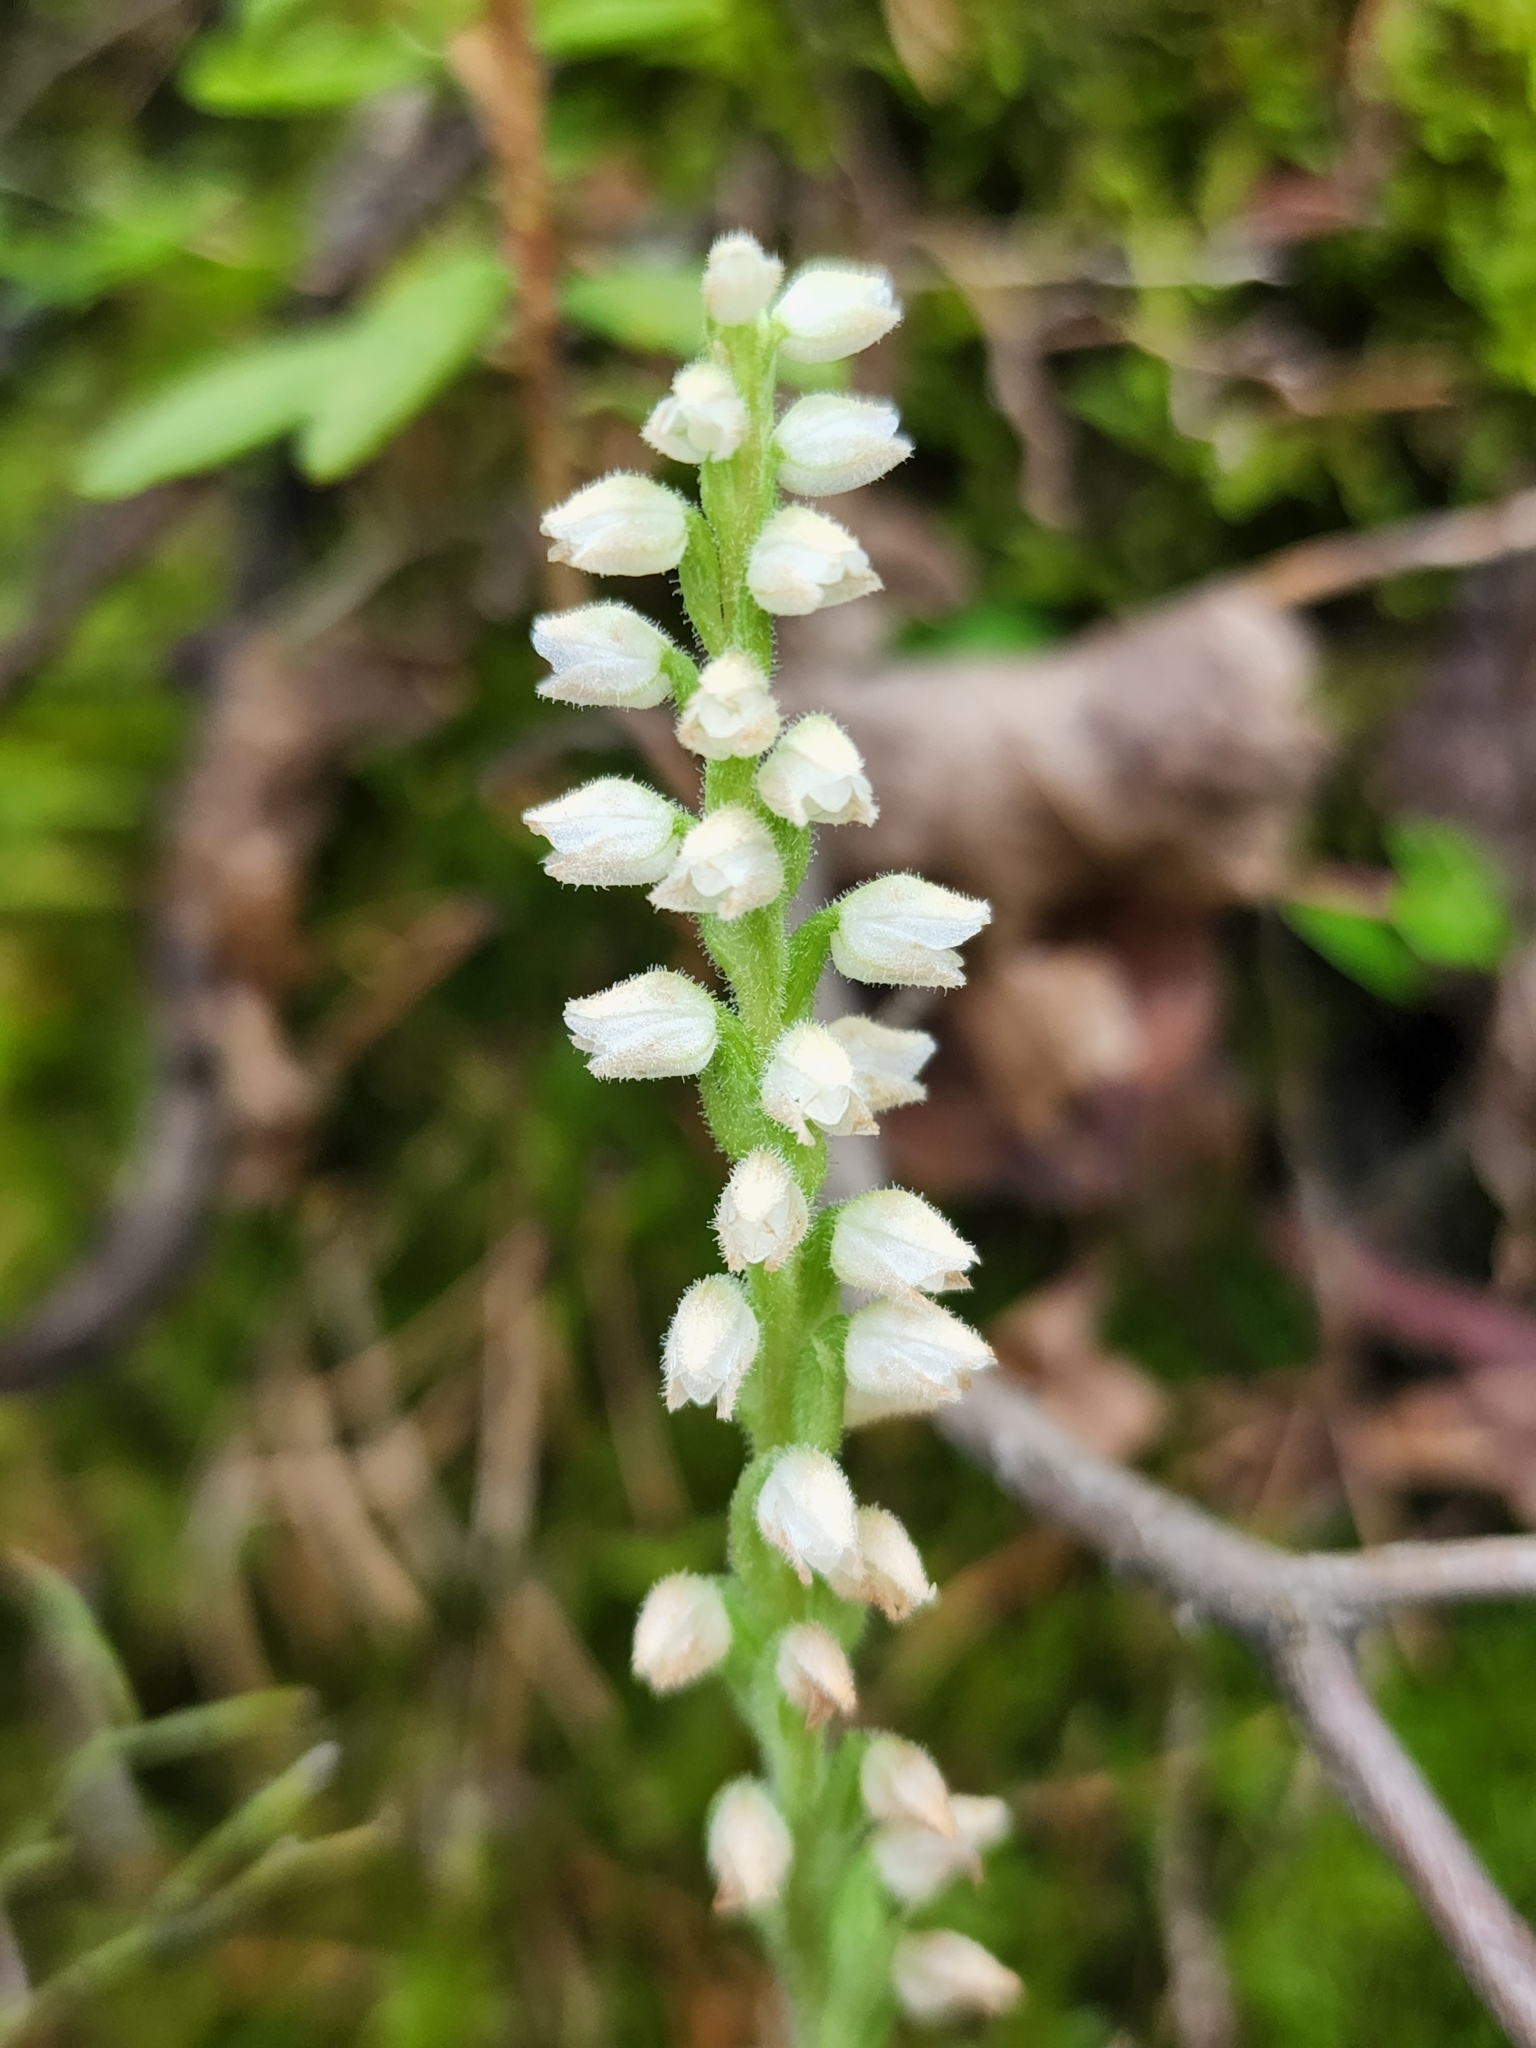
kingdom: Plantae
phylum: Tracheophyta
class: Liliopsida
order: Asparagales
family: Orchidaceae
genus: Goodyera
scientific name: Goodyera tesselata
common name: Checkered rattlesnake-plantain
